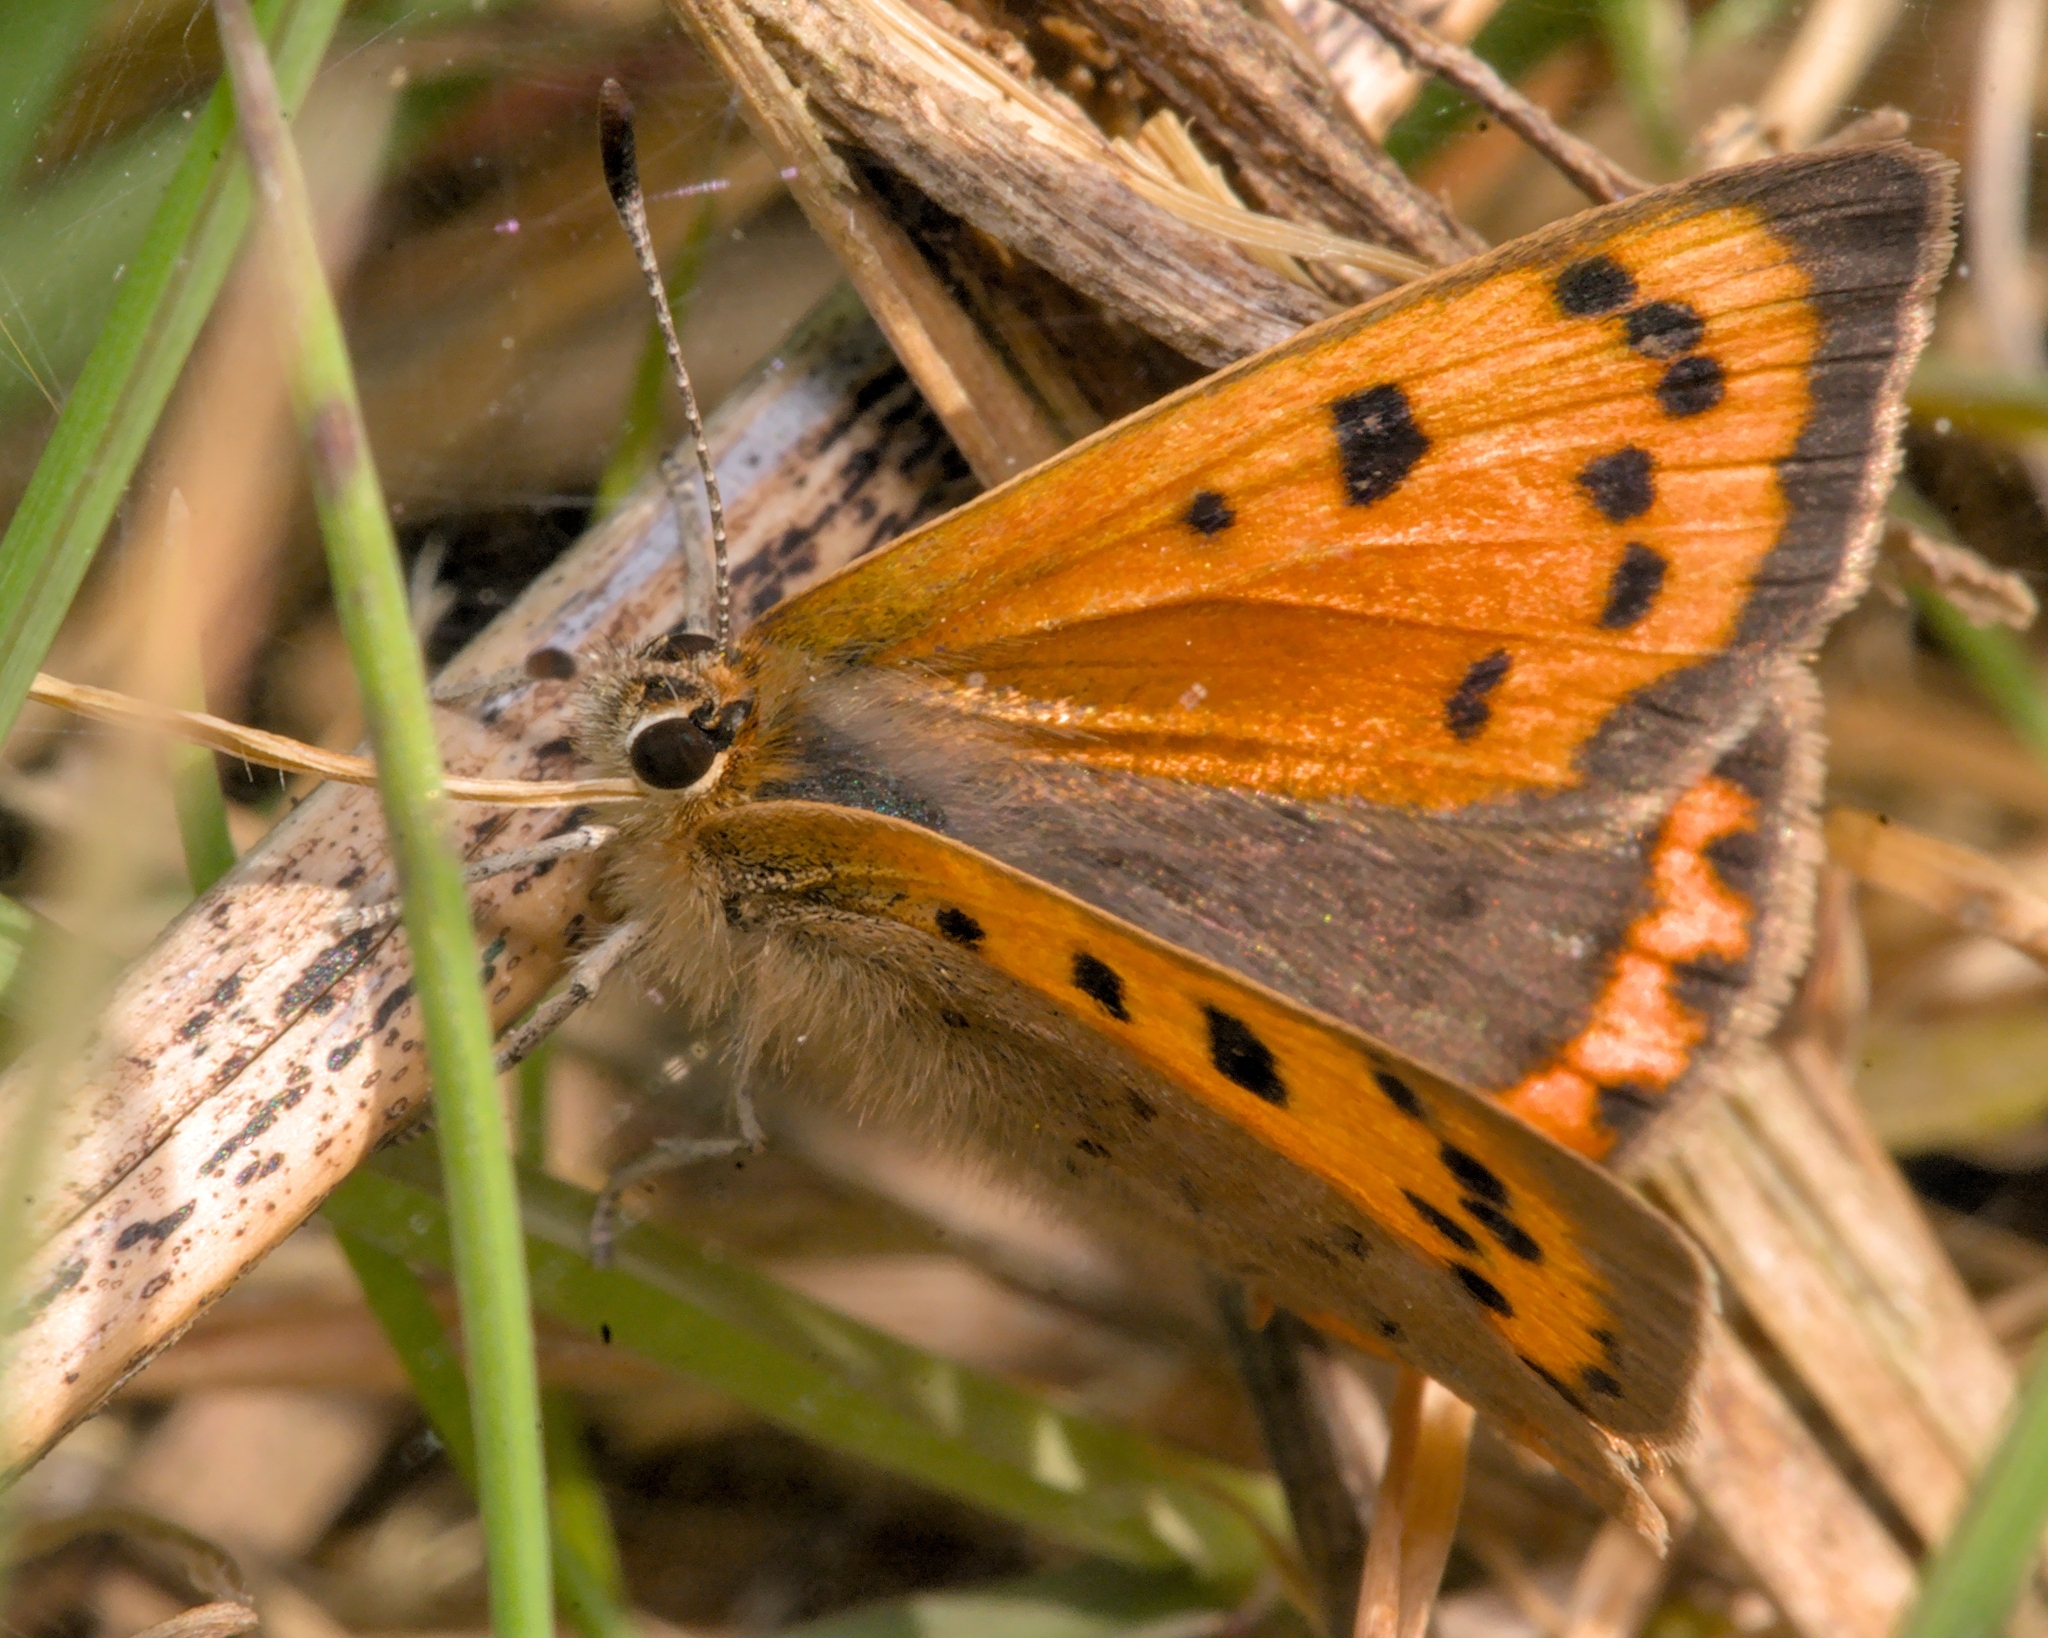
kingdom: Animalia
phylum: Arthropoda
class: Insecta
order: Lepidoptera
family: Lycaenidae
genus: Lycaena
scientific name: Lycaena phlaeas
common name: Small copper
